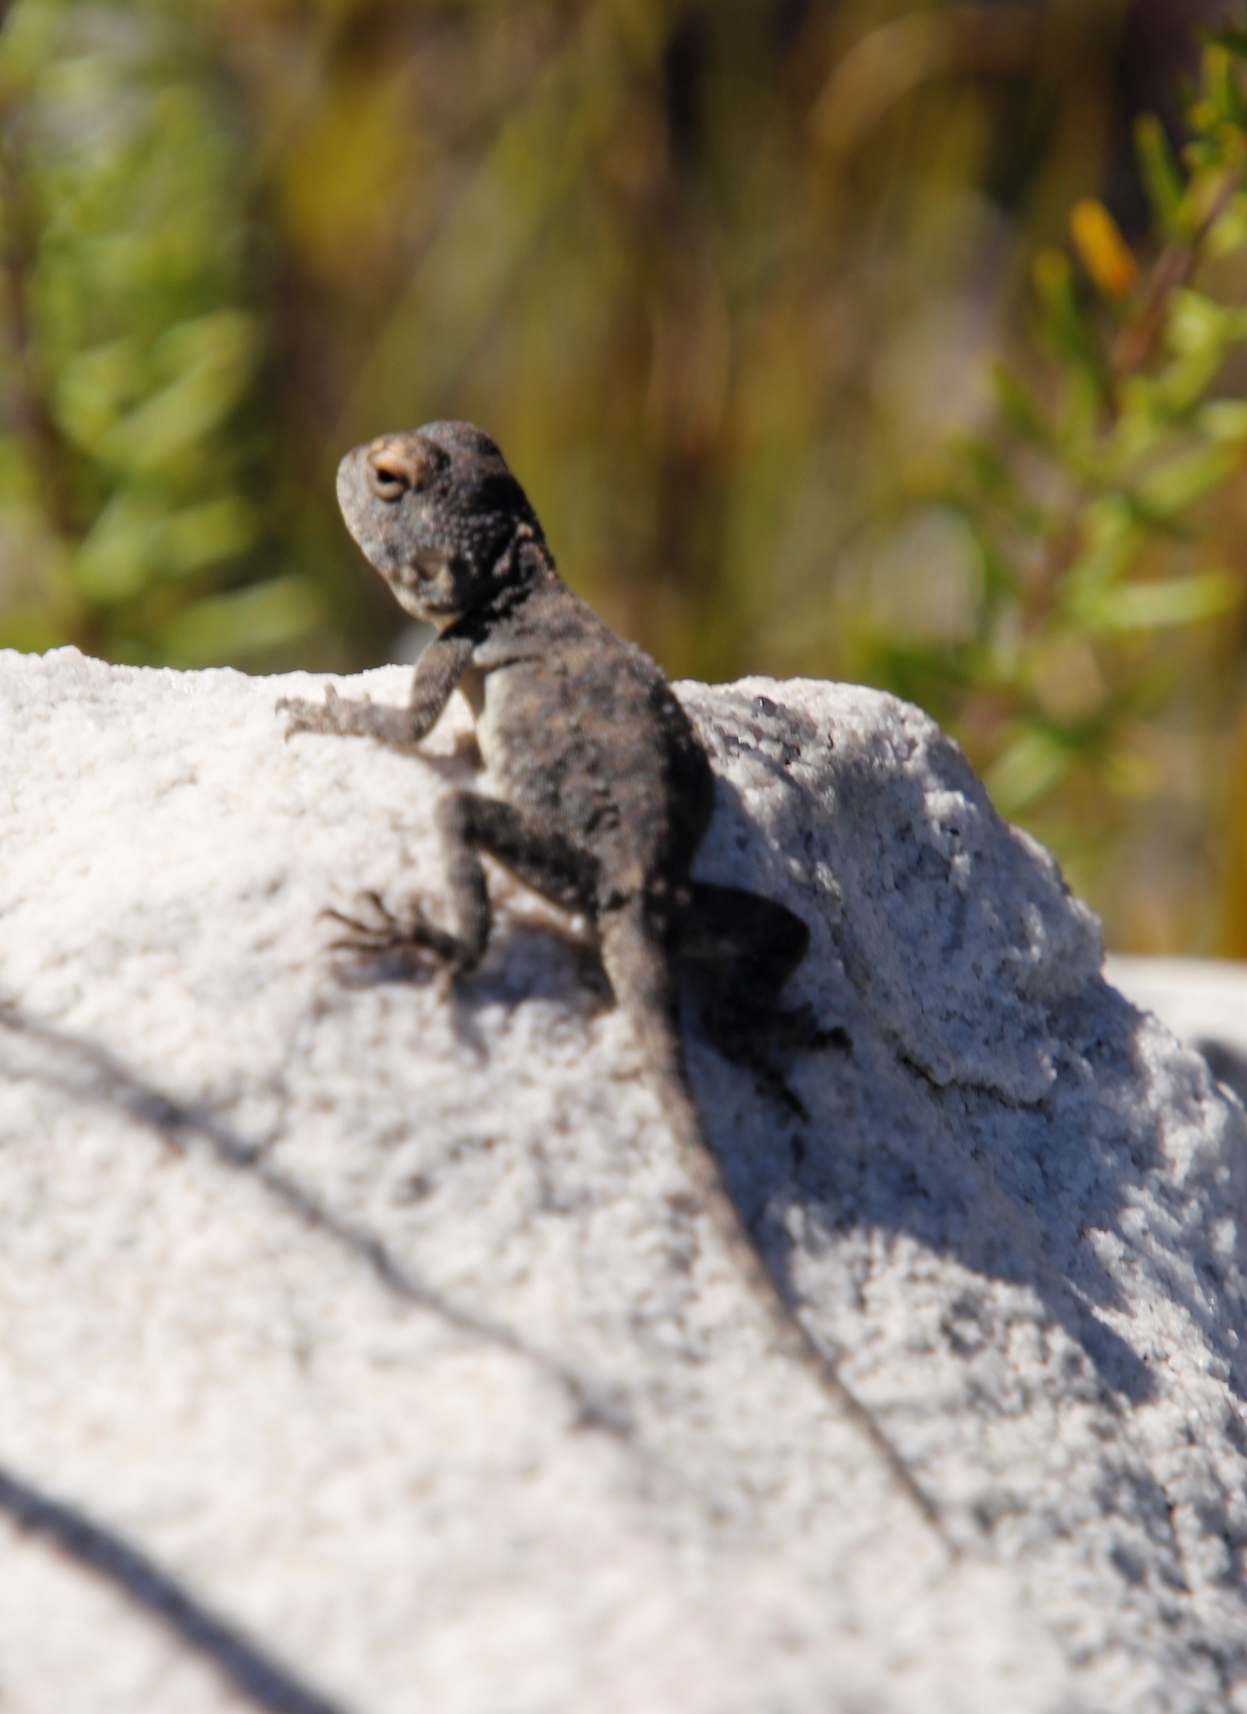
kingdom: Animalia
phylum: Chordata
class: Squamata
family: Agamidae
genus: Agama
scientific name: Agama atra
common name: Southern african rock agama
